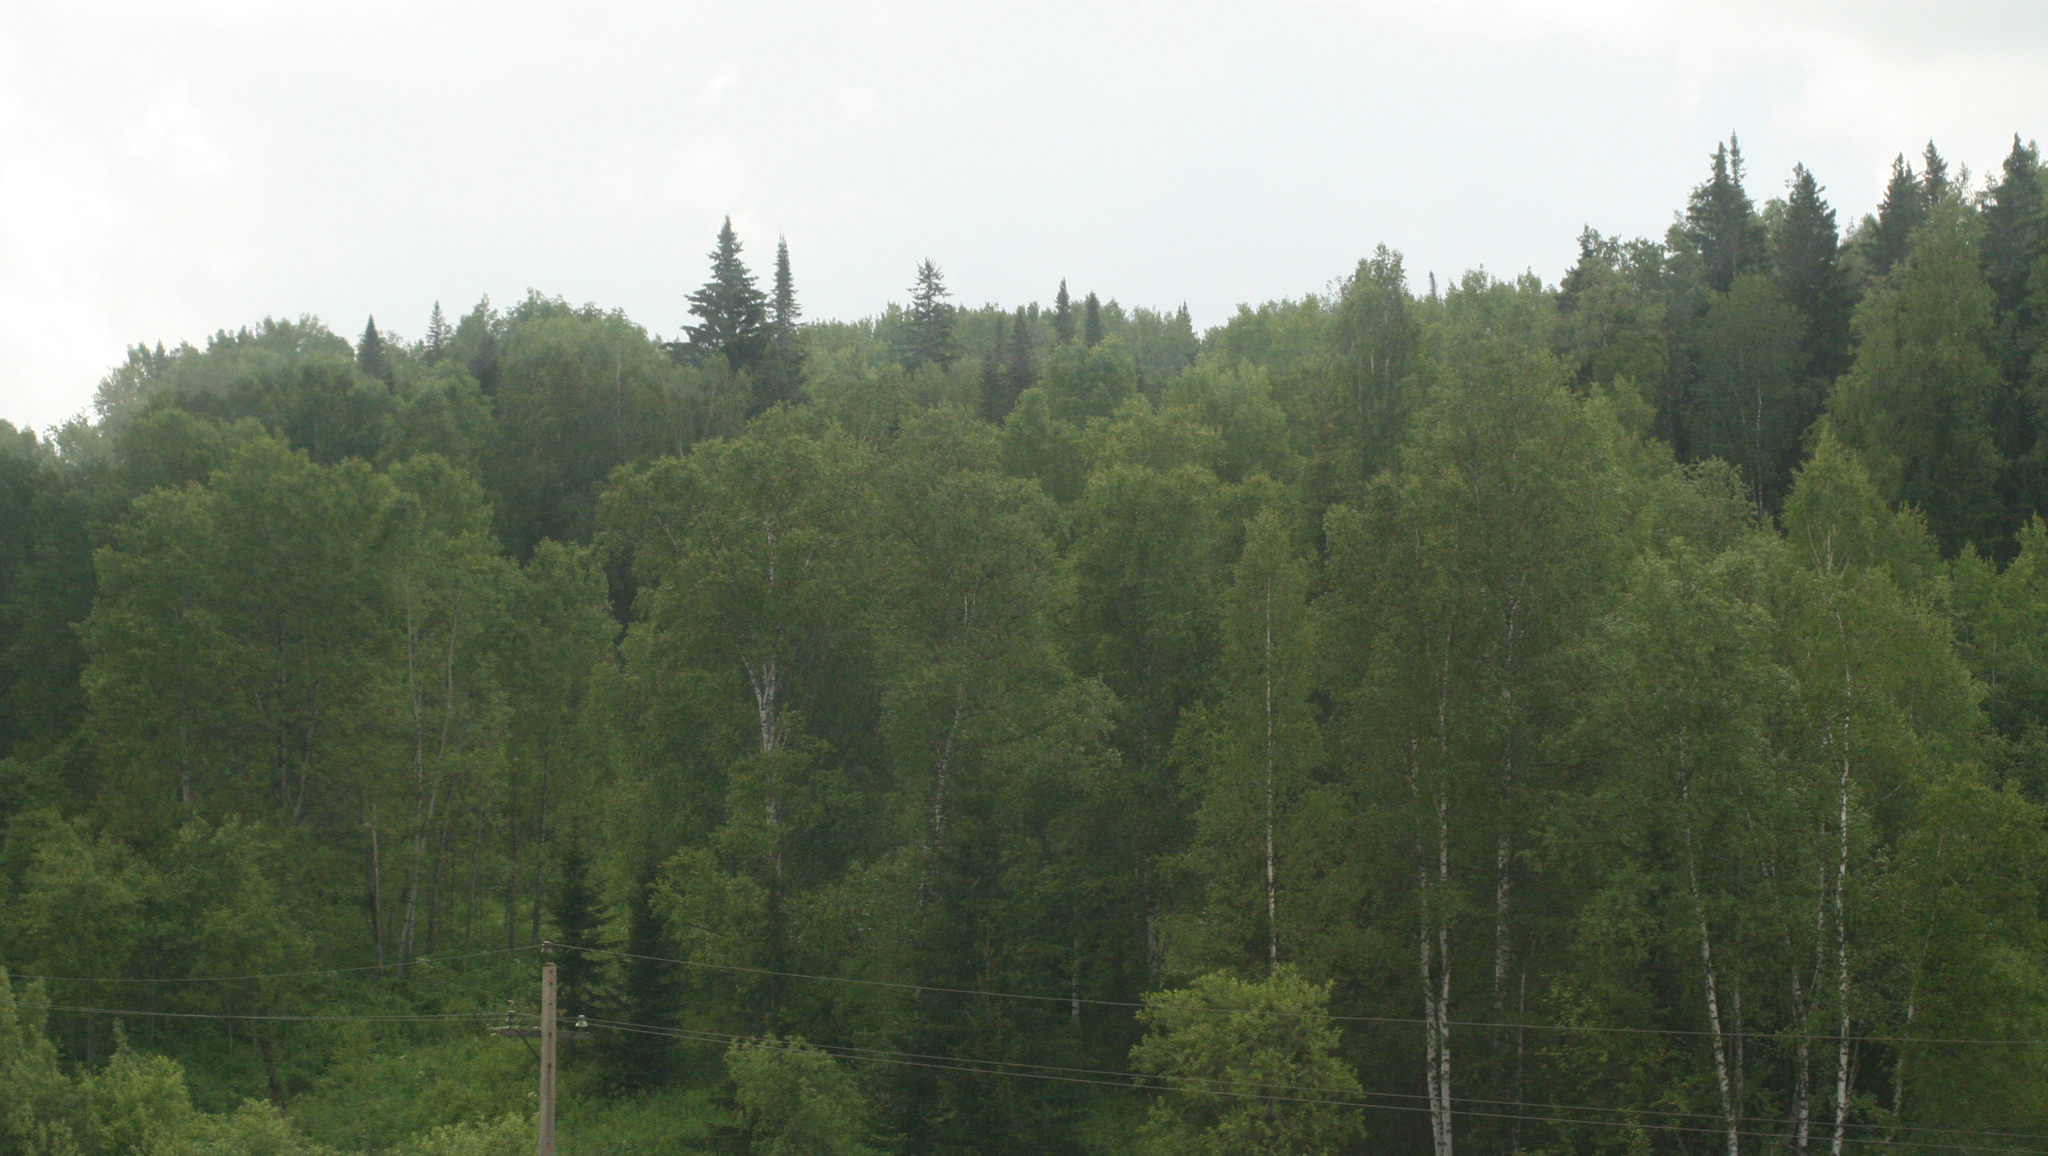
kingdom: Plantae
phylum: Tracheophyta
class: Pinopsida
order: Pinales
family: Pinaceae
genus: Picea
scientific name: Picea obovata
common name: Siberian spruce
